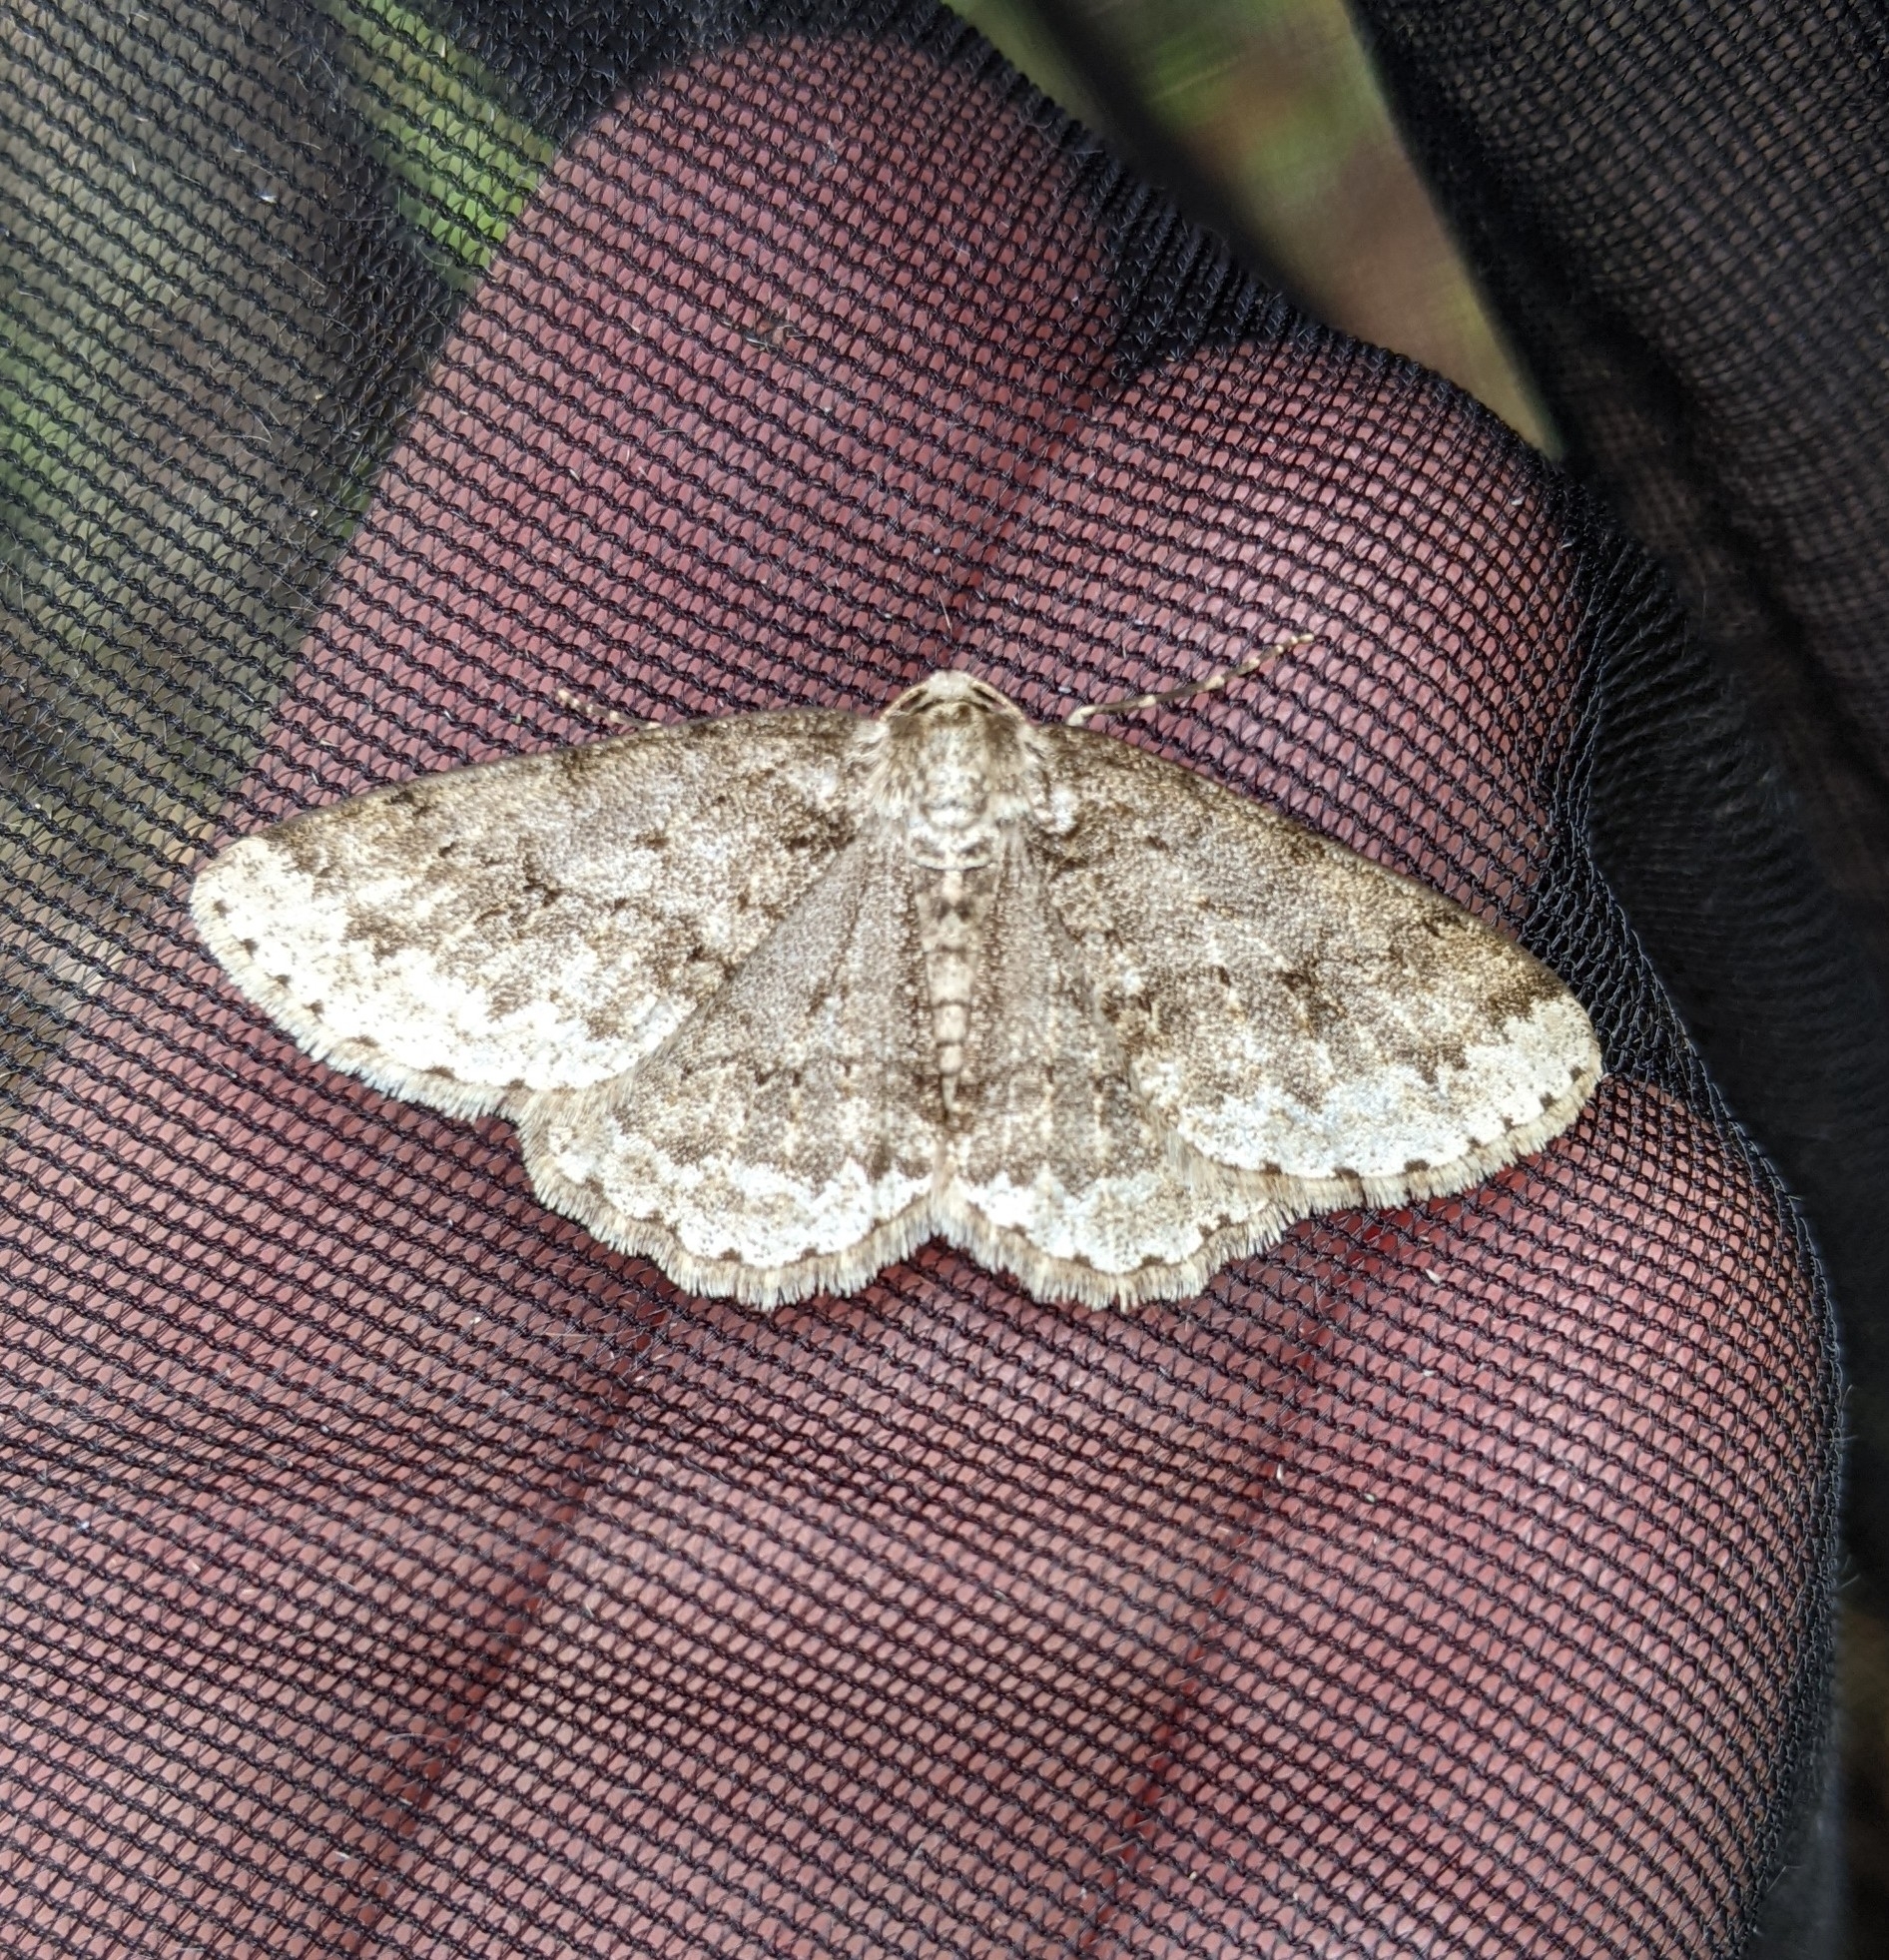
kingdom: Animalia
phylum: Arthropoda
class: Insecta
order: Lepidoptera
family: Geometridae
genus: Ectropis
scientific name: Ectropis crepuscularia
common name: Engrailed
